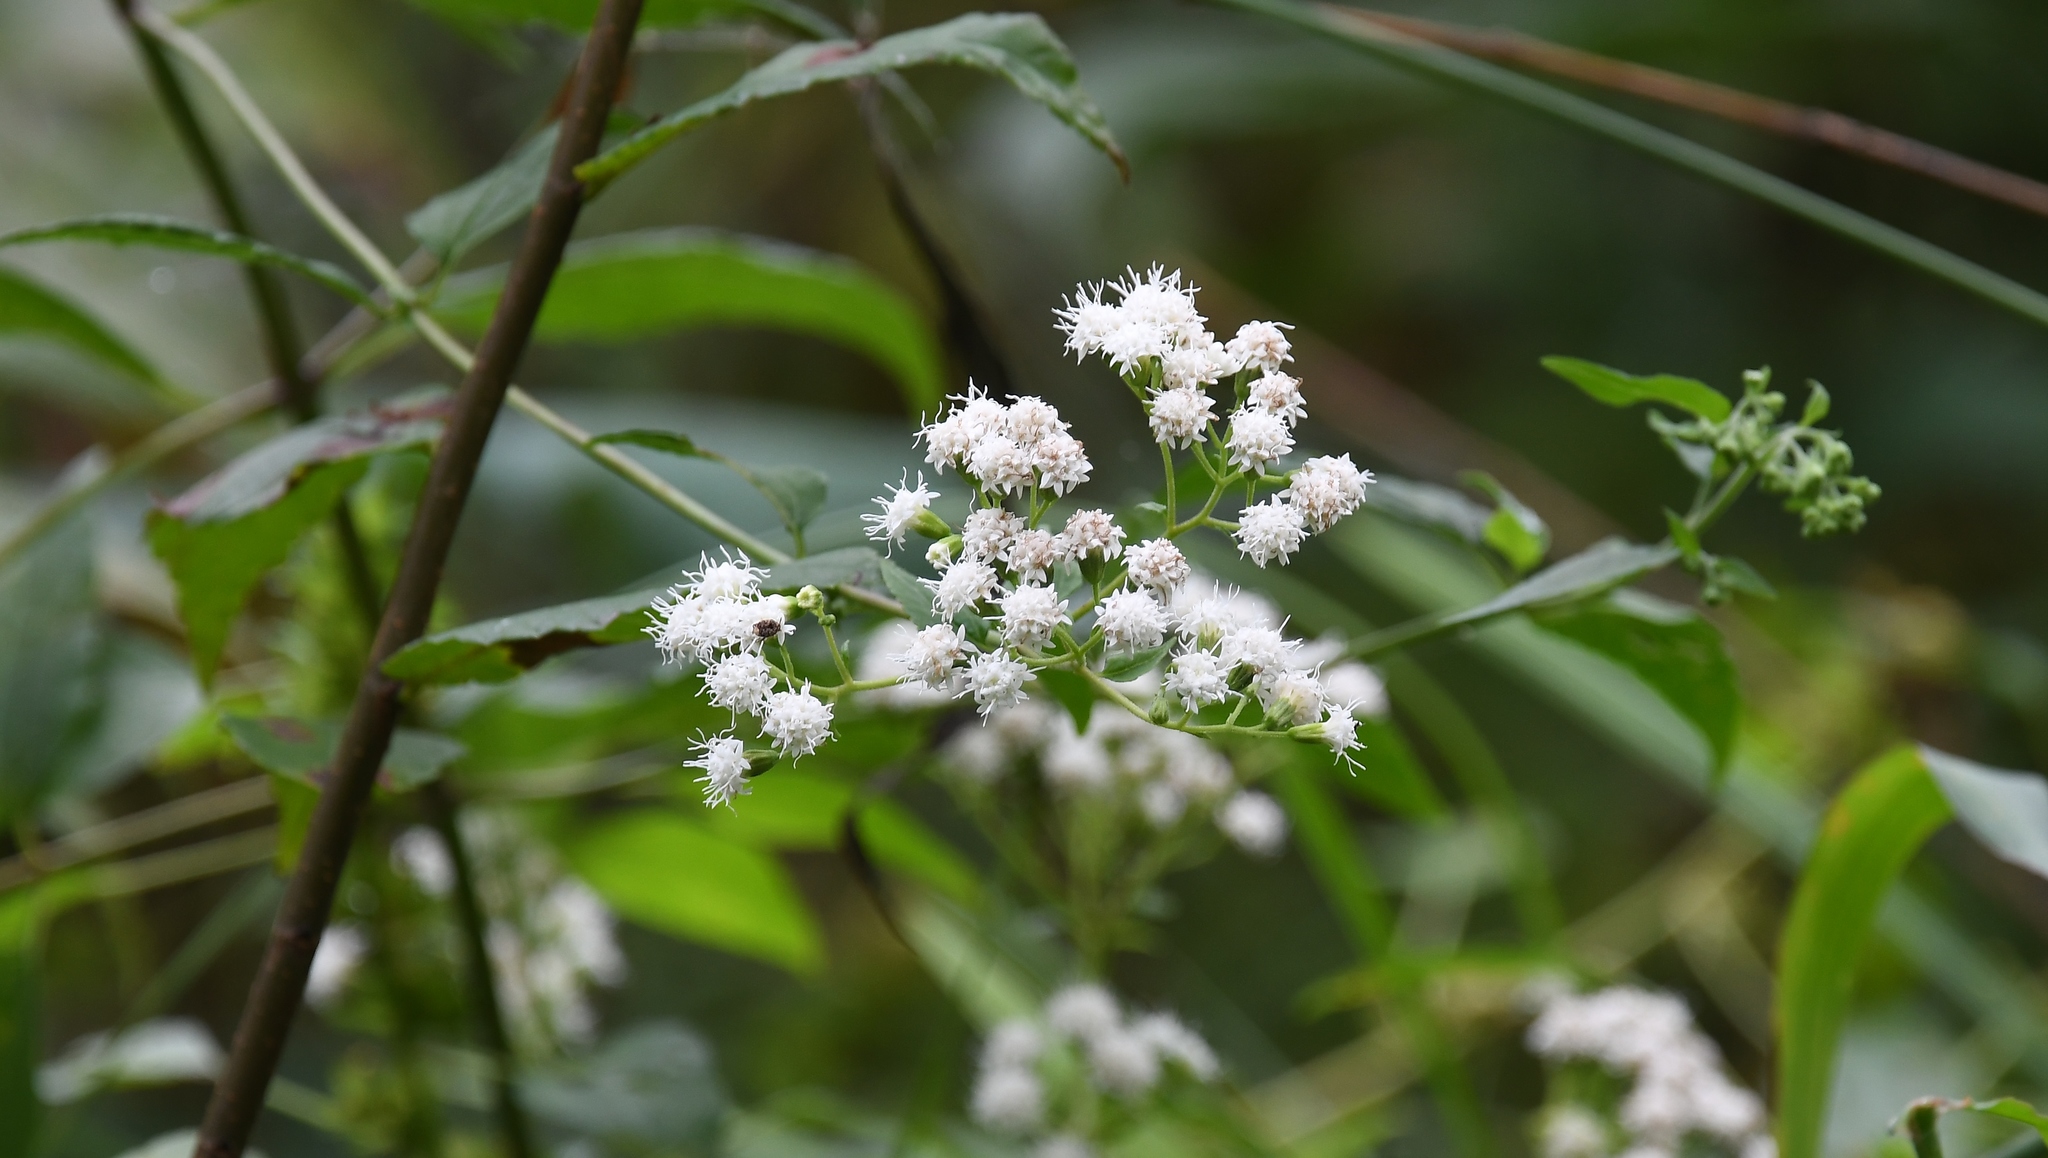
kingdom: Plantae
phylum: Tracheophyta
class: Magnoliopsida
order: Asterales
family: Asteraceae
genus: Ageratina
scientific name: Ageratina altissima
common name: White snakeroot
